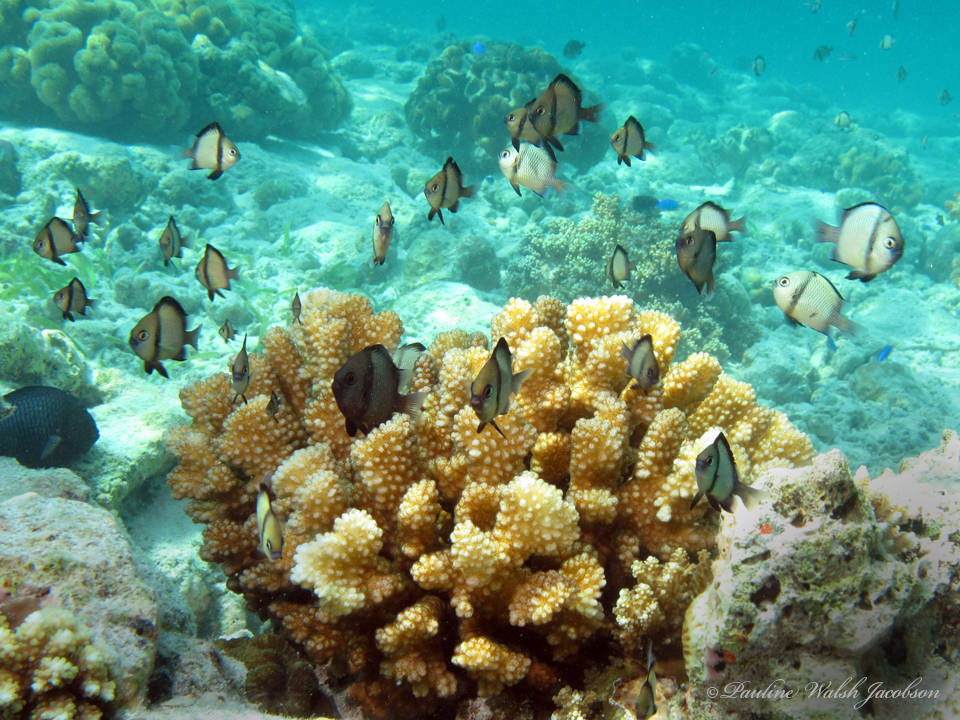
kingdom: Animalia
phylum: Chordata
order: Perciformes
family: Pomacentridae
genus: Dascyllus
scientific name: Dascyllus reticulatus
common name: Reticulated dascyllus
